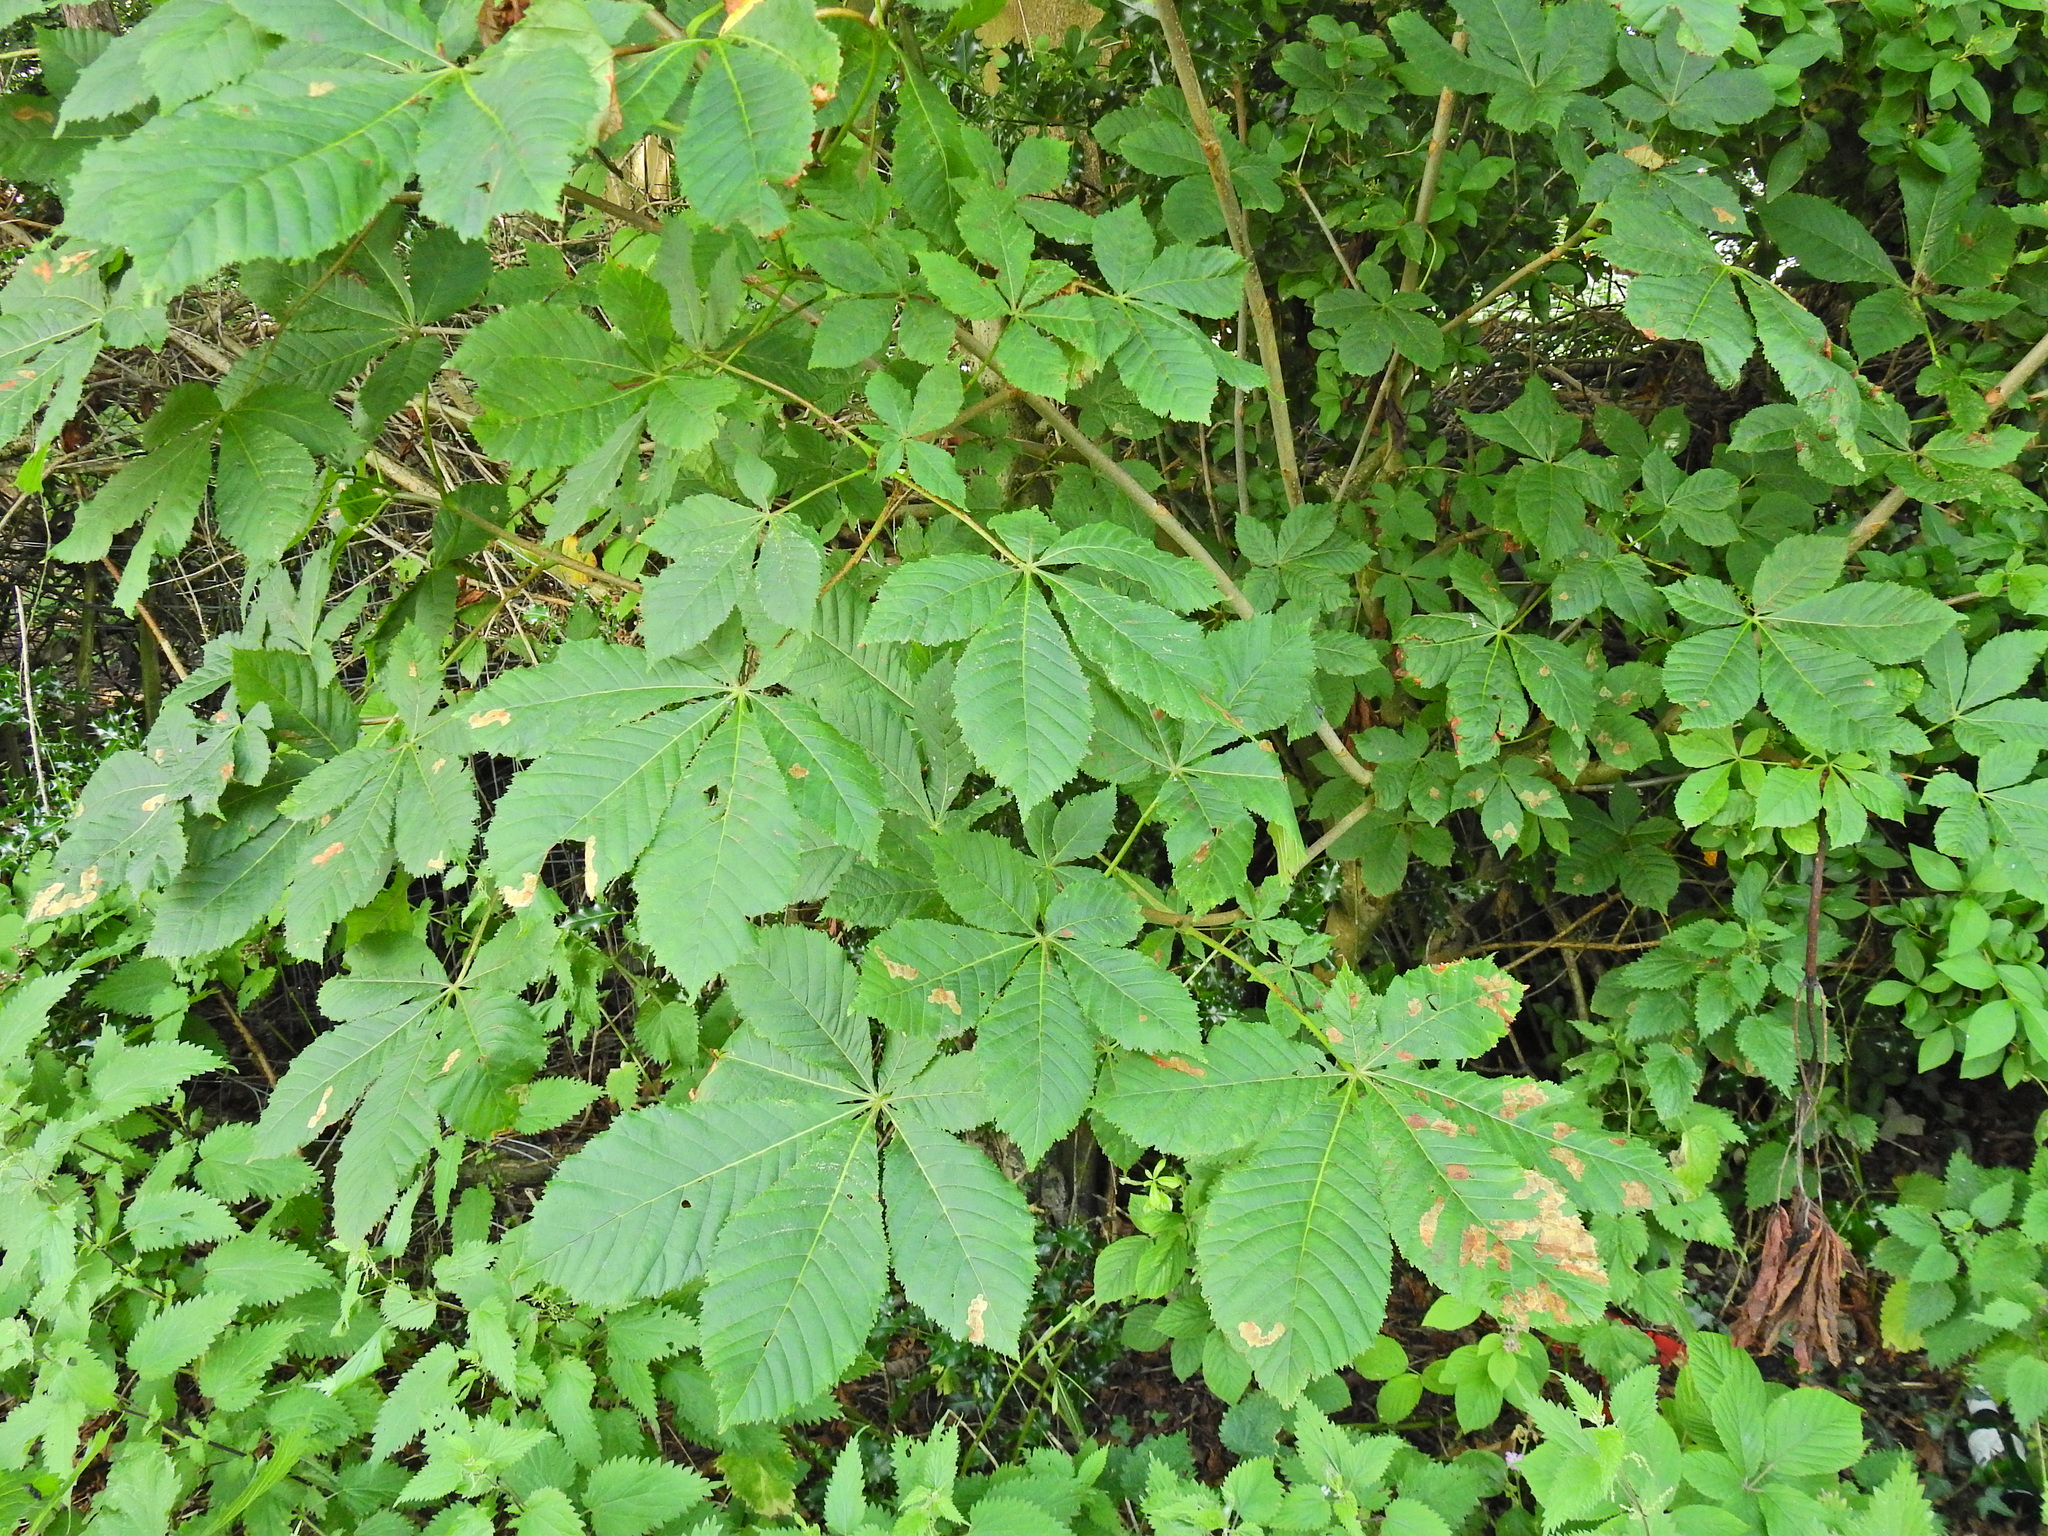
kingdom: Plantae
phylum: Tracheophyta
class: Magnoliopsida
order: Sapindales
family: Sapindaceae
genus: Aesculus
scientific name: Aesculus hippocastanum
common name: Horse-chestnut
